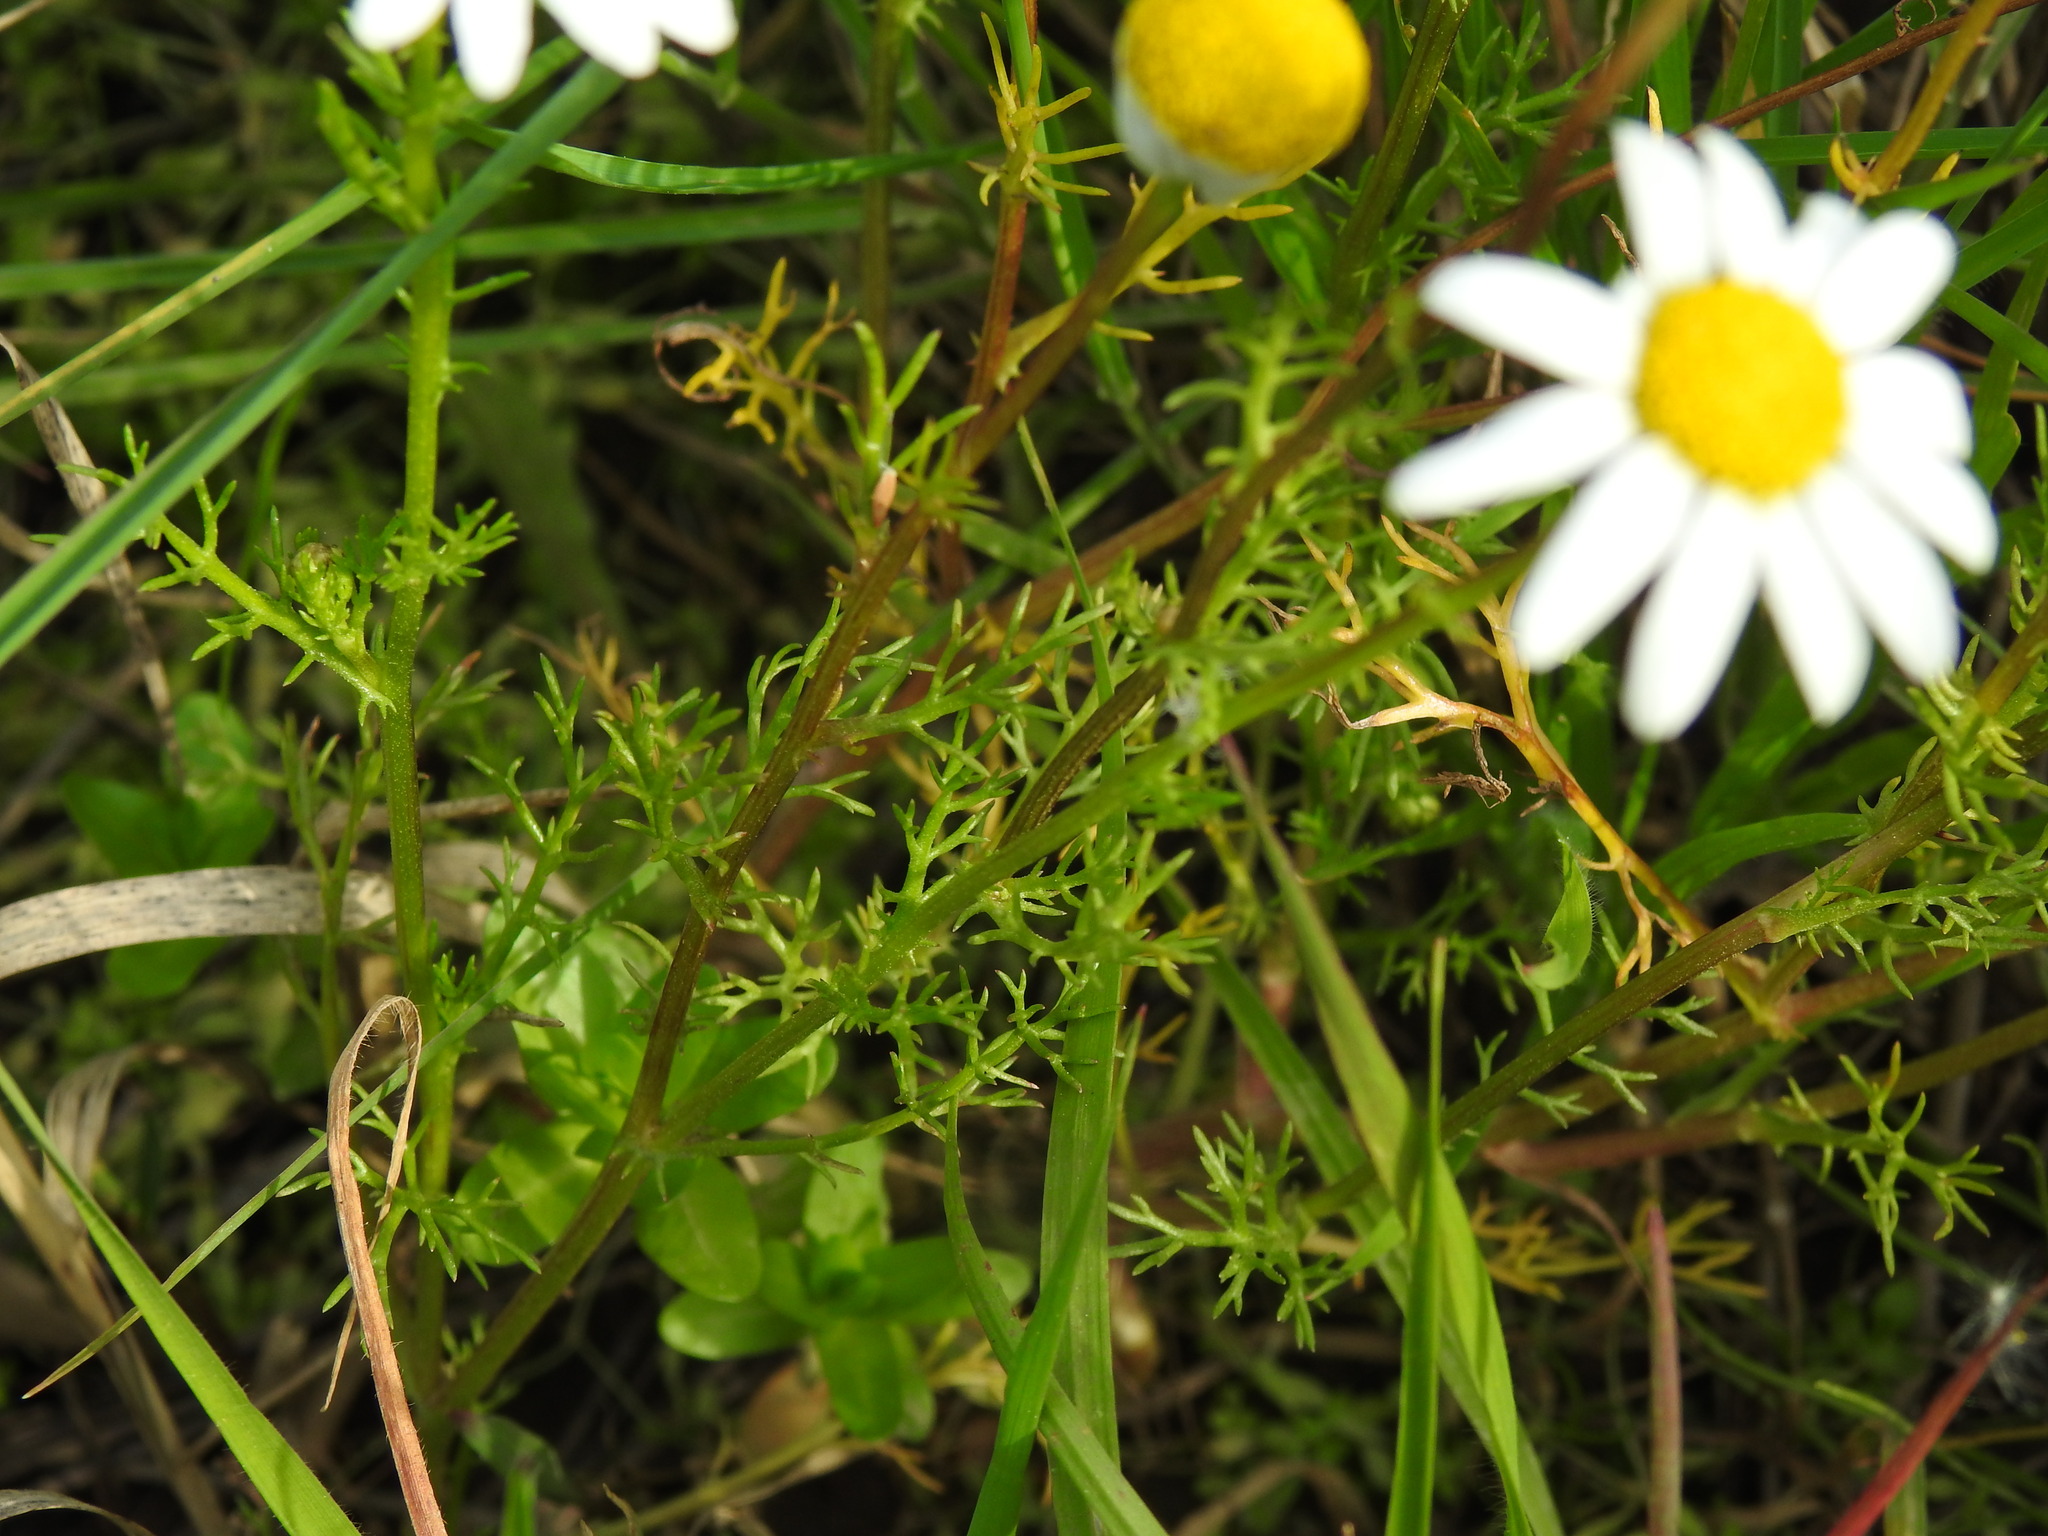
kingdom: Plantae
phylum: Tracheophyta
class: Magnoliopsida
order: Asterales
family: Asteraceae
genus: Chamaemelum
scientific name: Chamaemelum fuscatum
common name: Chamomile
